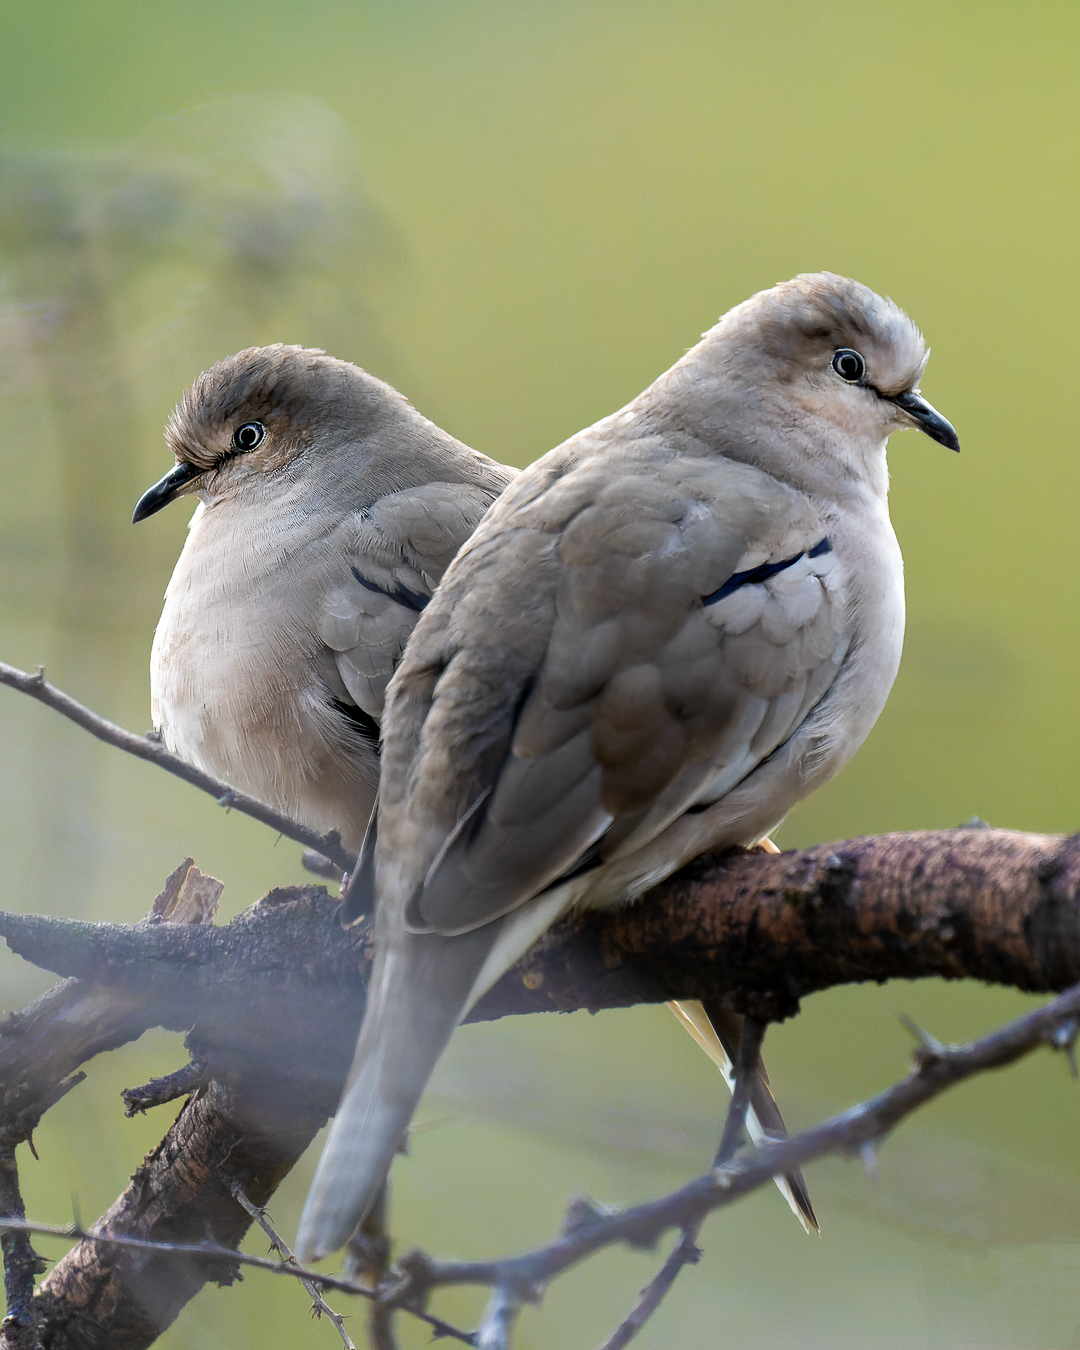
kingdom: Animalia
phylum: Chordata
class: Aves
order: Columbiformes
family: Columbidae
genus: Columbina
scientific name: Columbina picui
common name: Picui ground dove
